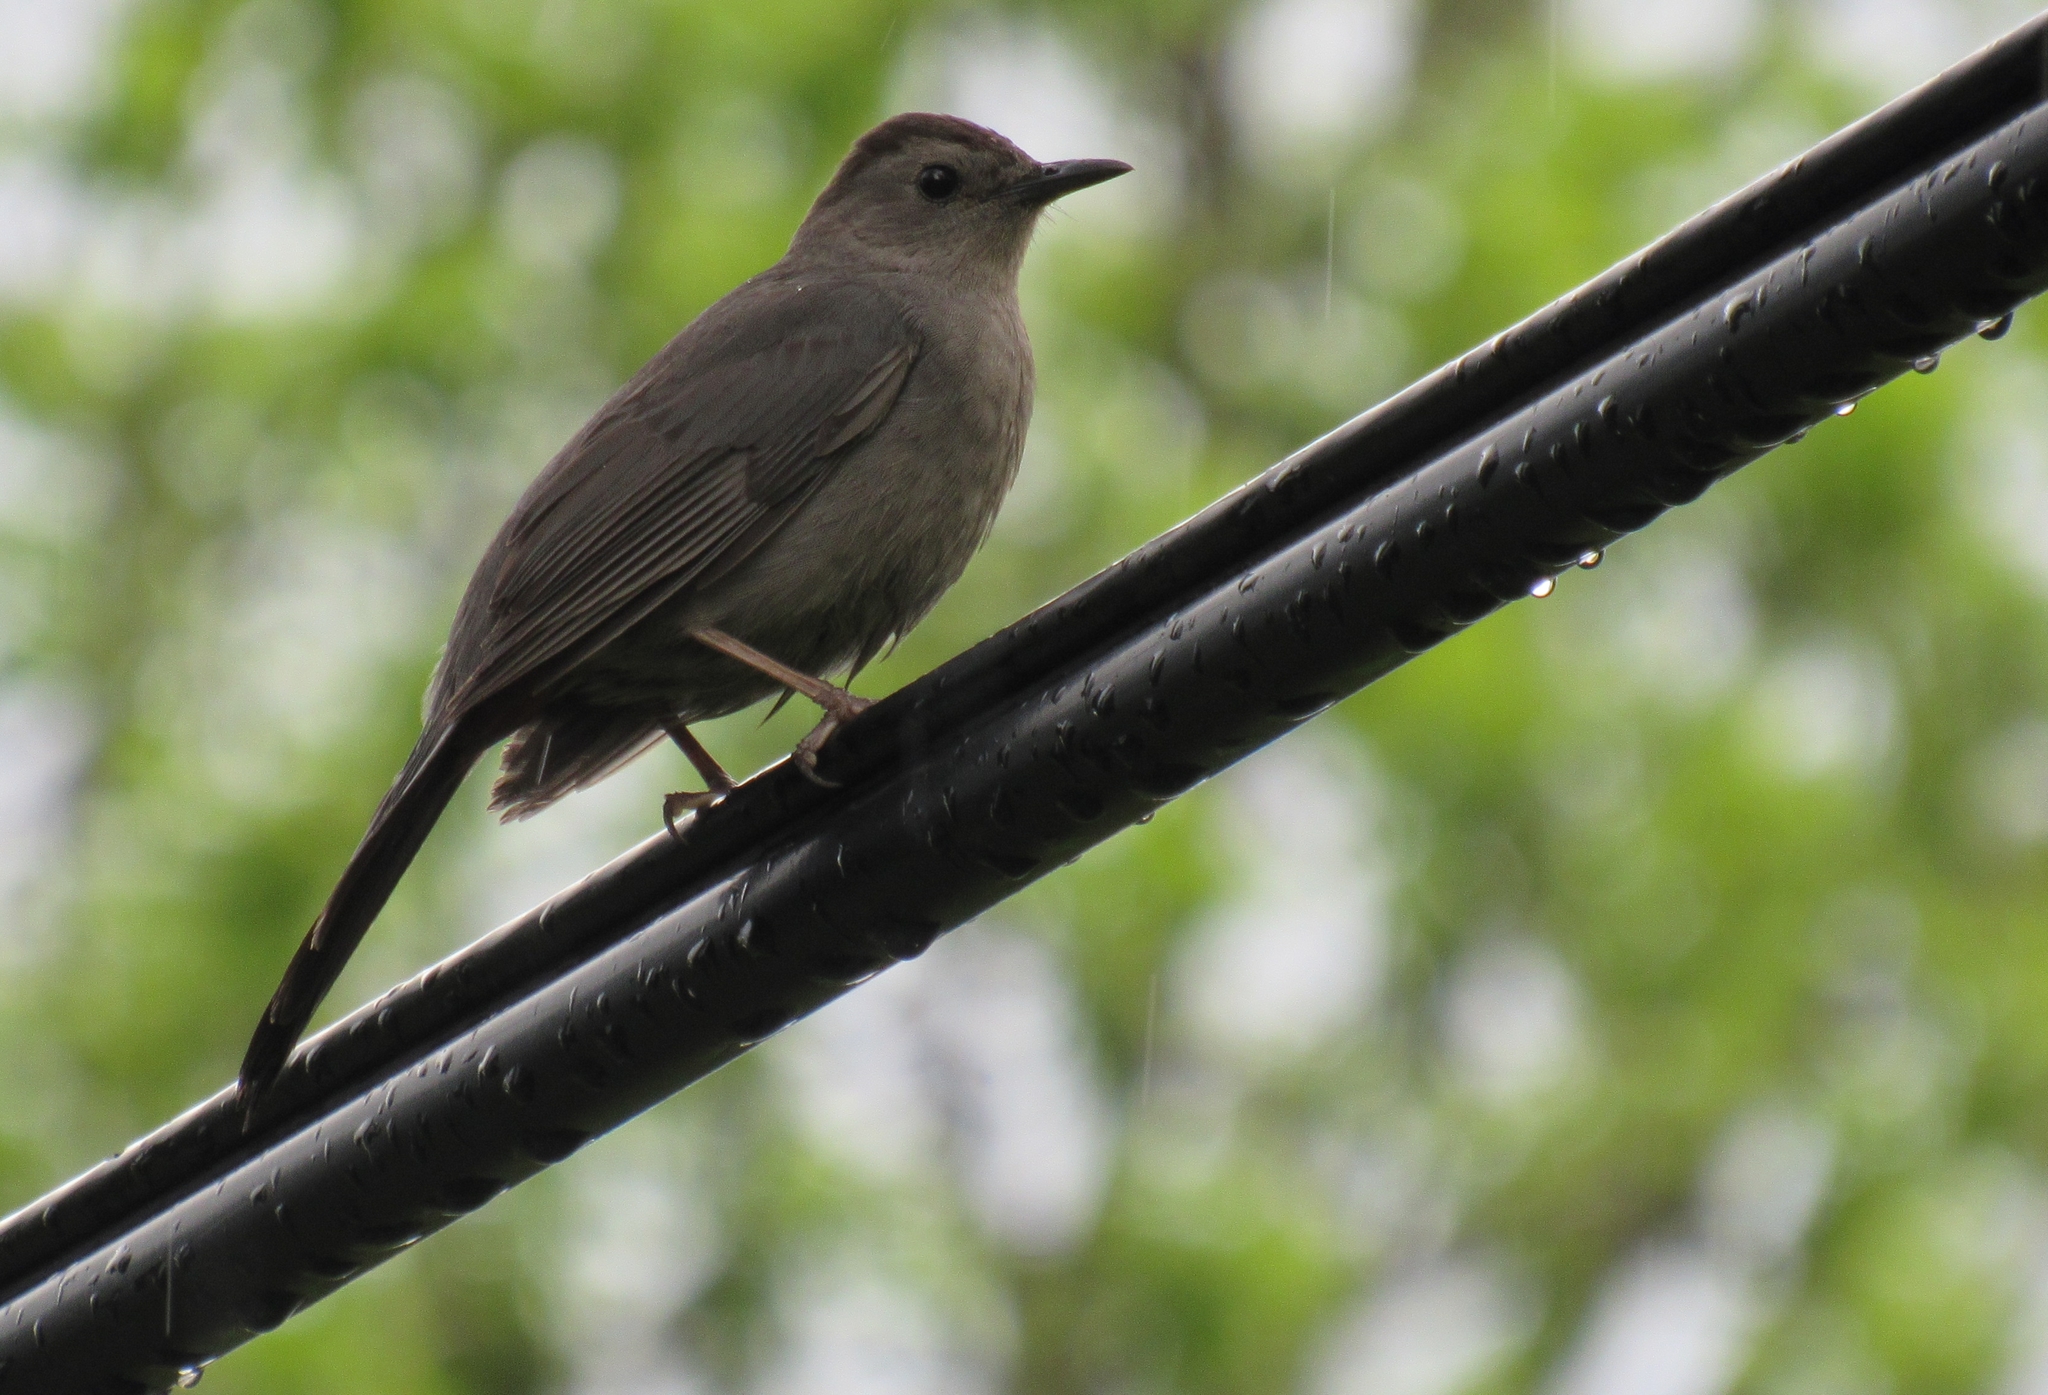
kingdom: Animalia
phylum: Chordata
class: Aves
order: Passeriformes
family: Mimidae
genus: Dumetella
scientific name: Dumetella carolinensis
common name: Gray catbird
